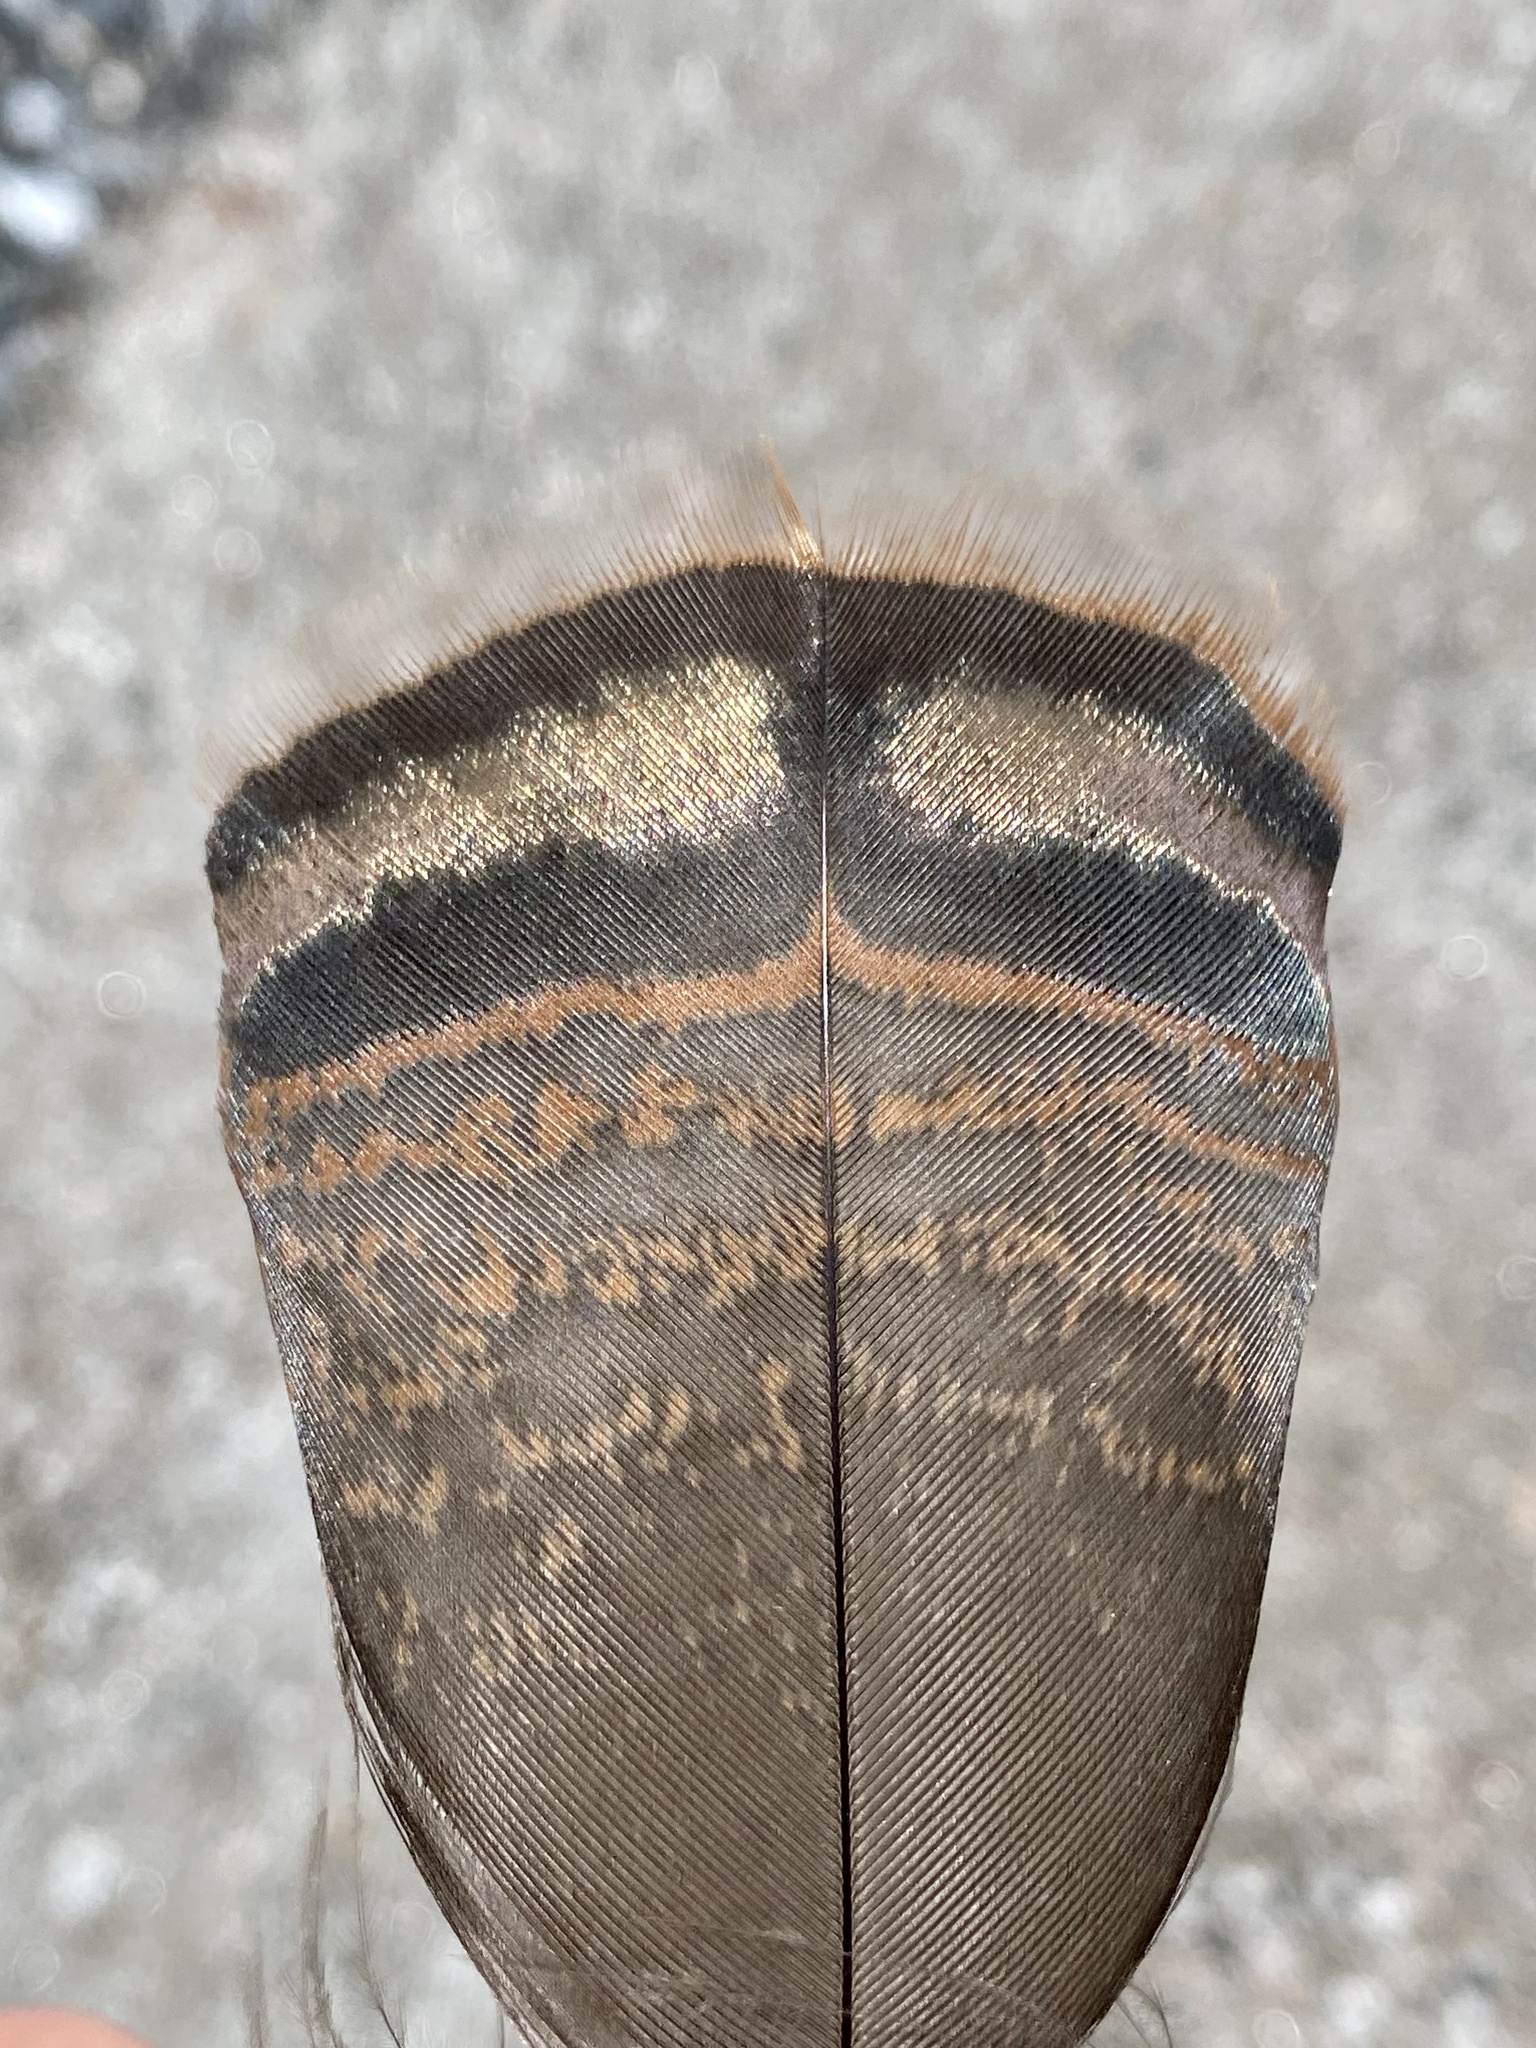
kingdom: Animalia
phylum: Chordata
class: Aves
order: Galliformes
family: Phasianidae
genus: Meleagris
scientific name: Meleagris gallopavo
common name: Wild turkey
